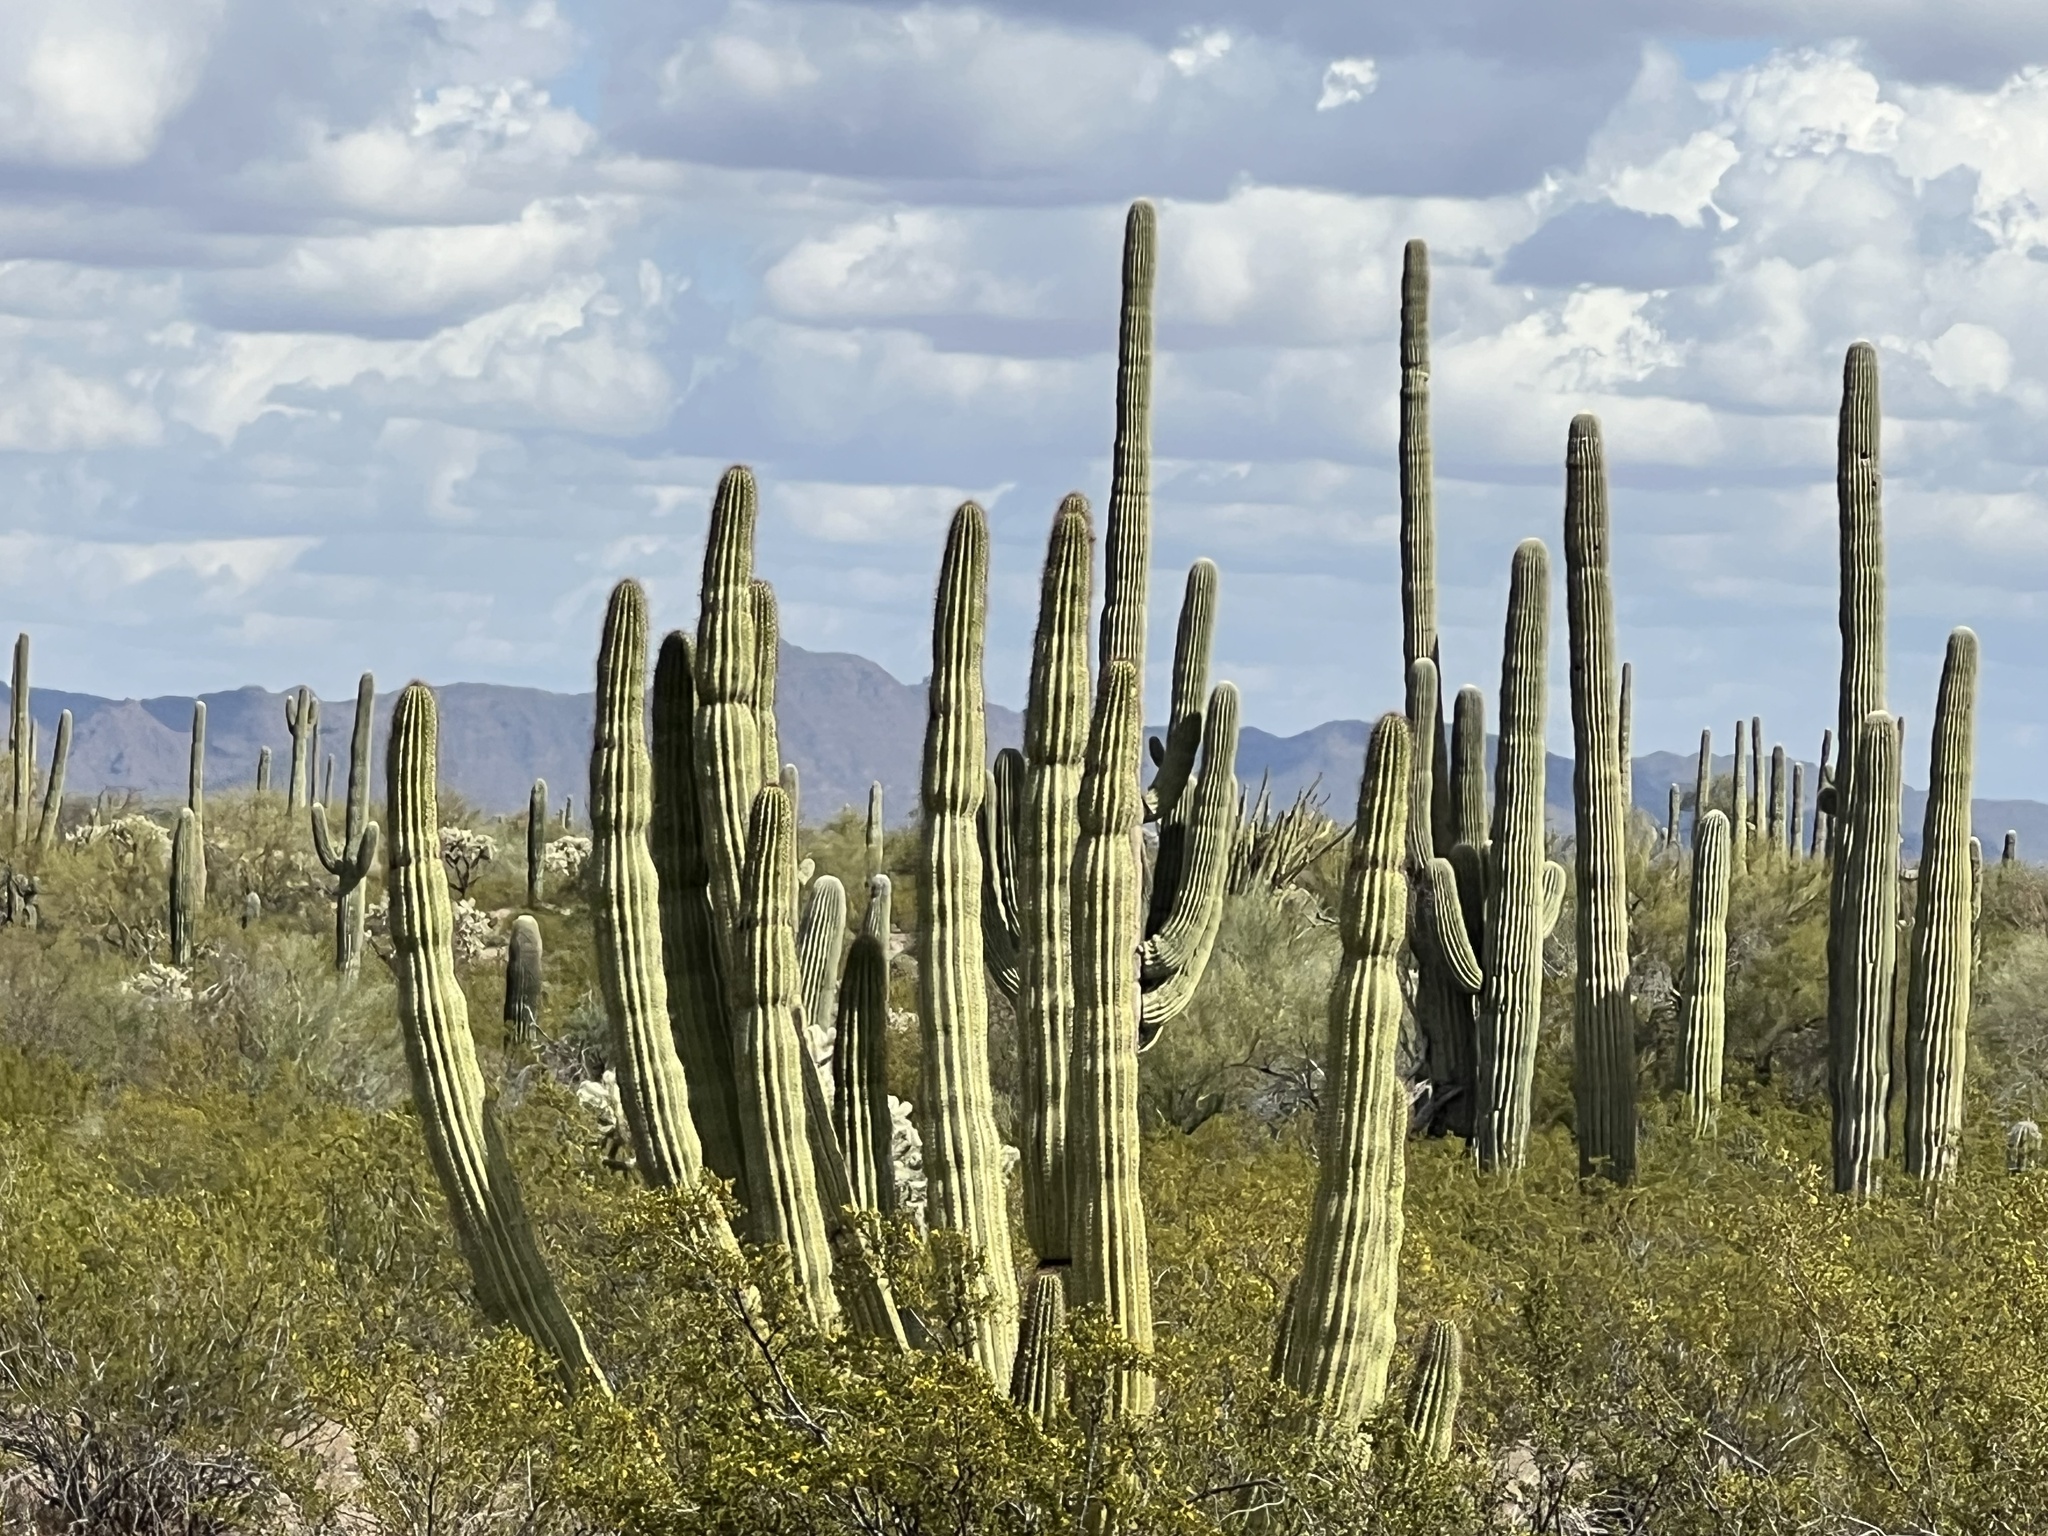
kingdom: Plantae
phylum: Tracheophyta
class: Magnoliopsida
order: Caryophyllales
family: Cactaceae
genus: Stenocereus
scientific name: Stenocereus thurberi
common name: Organ pipe cactus
